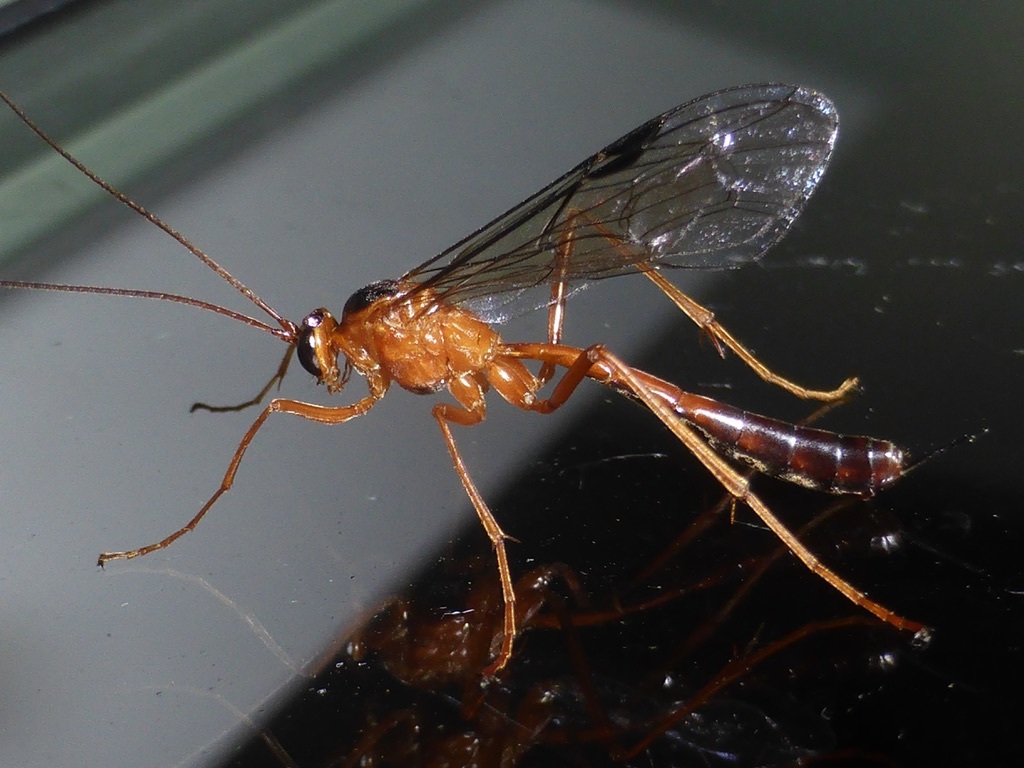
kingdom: Animalia
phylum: Arthropoda
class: Insecta
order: Hymenoptera
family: Ichneumonidae
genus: Netelia
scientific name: Netelia ephippiata
